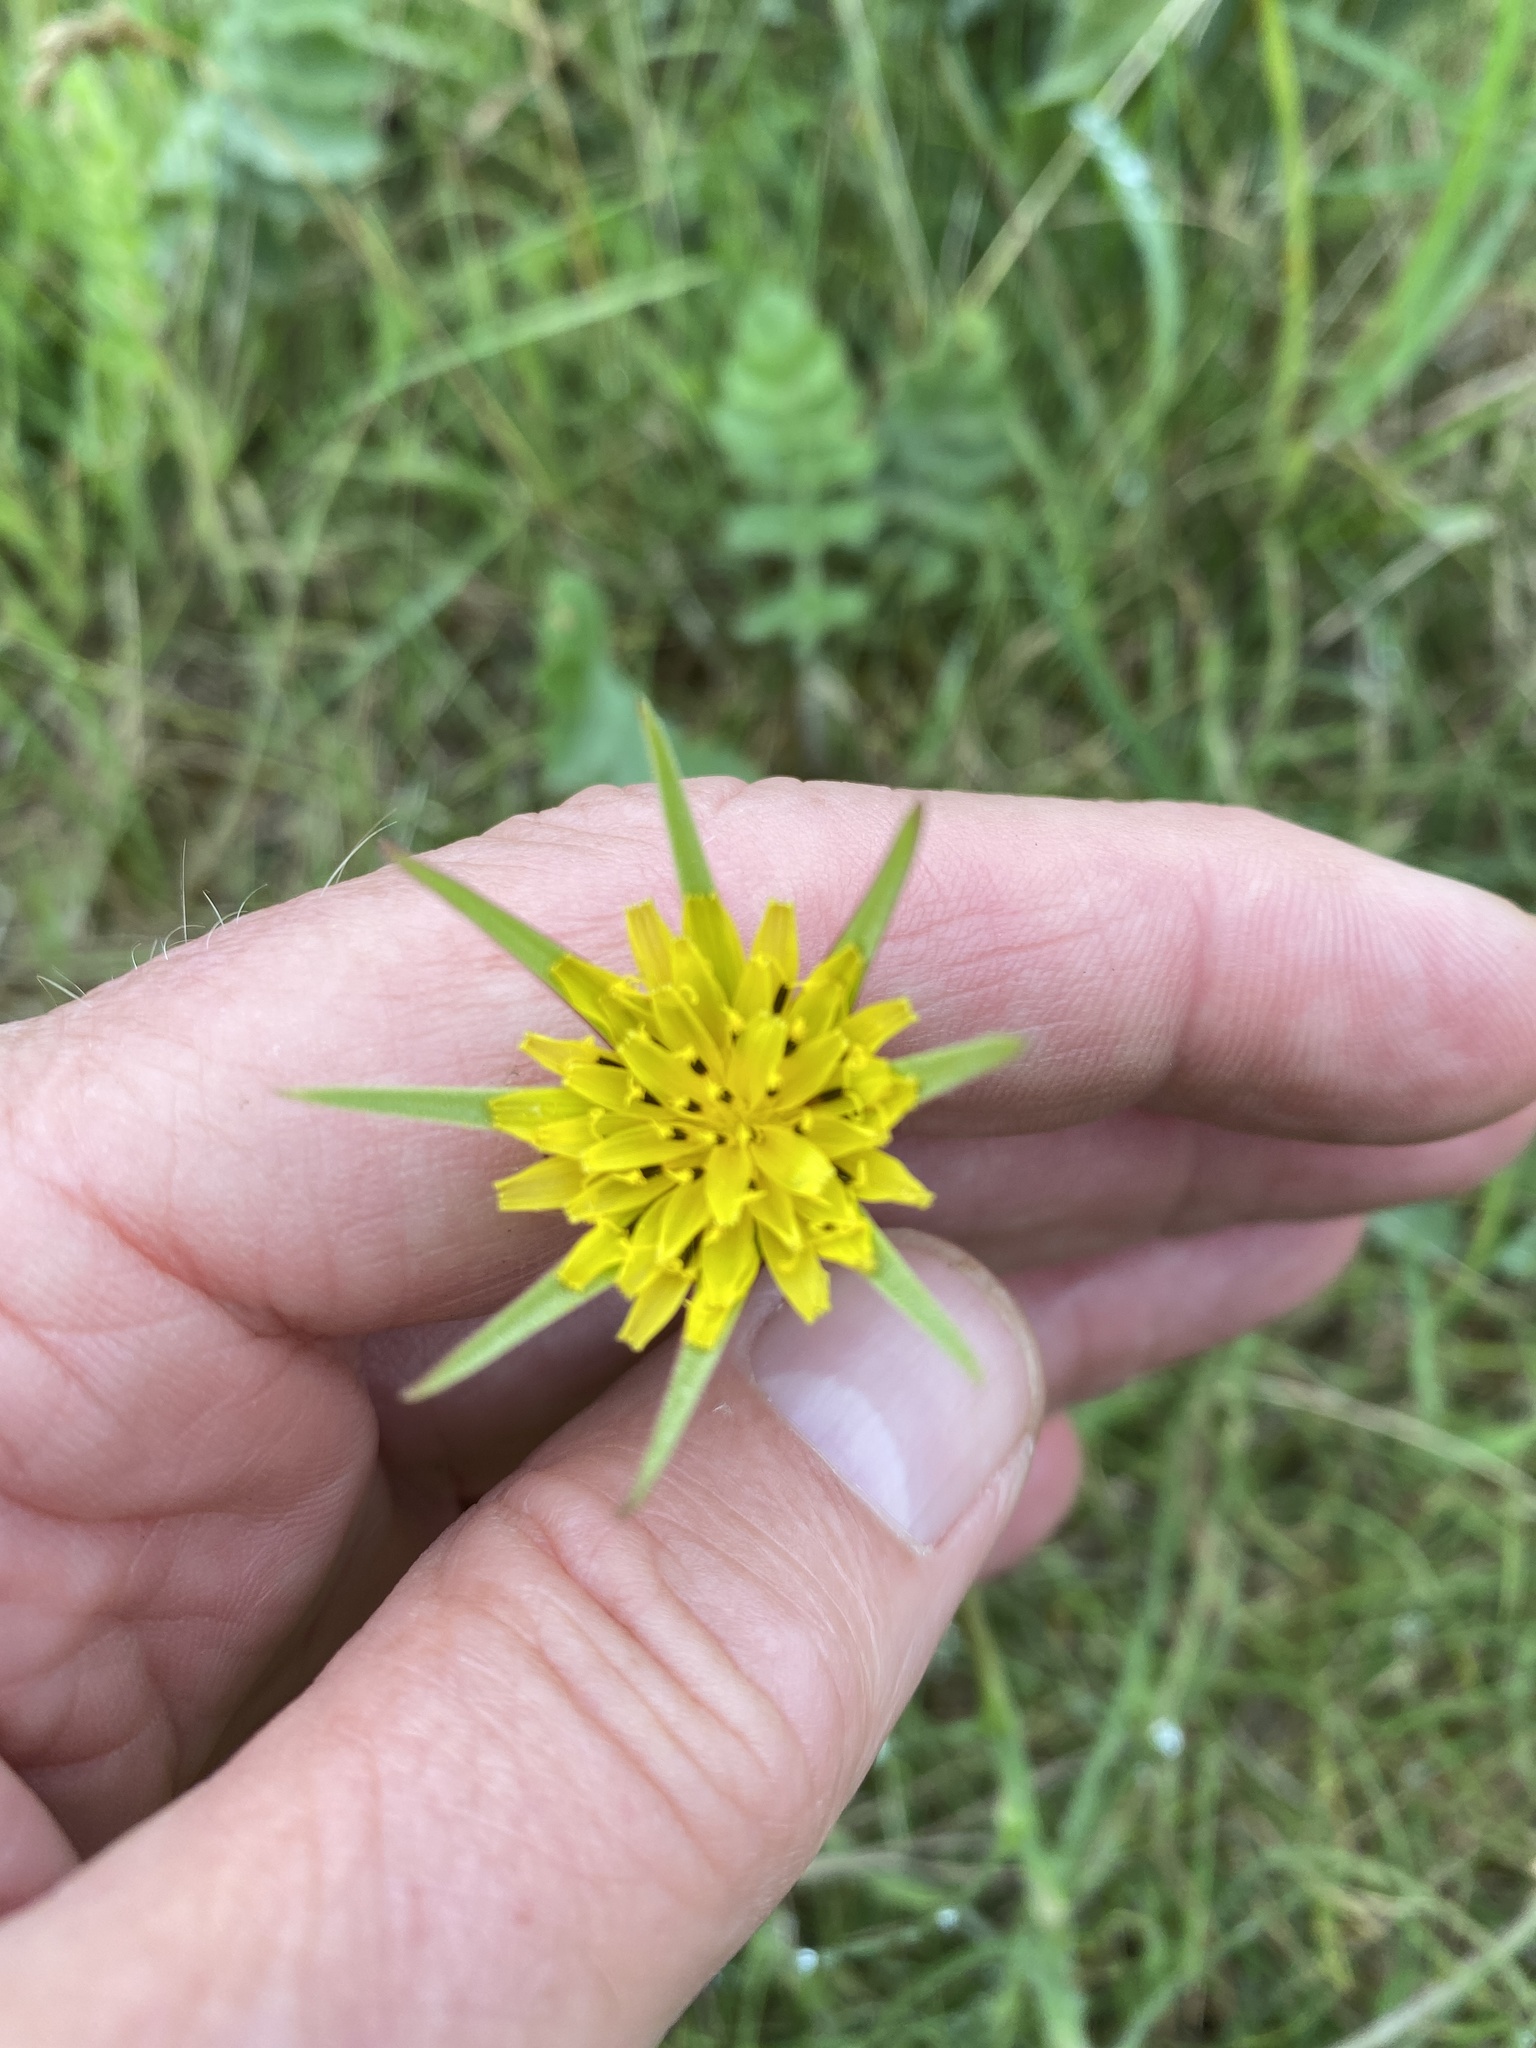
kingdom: Plantae
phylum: Tracheophyta
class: Magnoliopsida
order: Asterales
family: Asteraceae
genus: Tragopogon
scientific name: Tragopogon pratensis
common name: Goat's-beard
